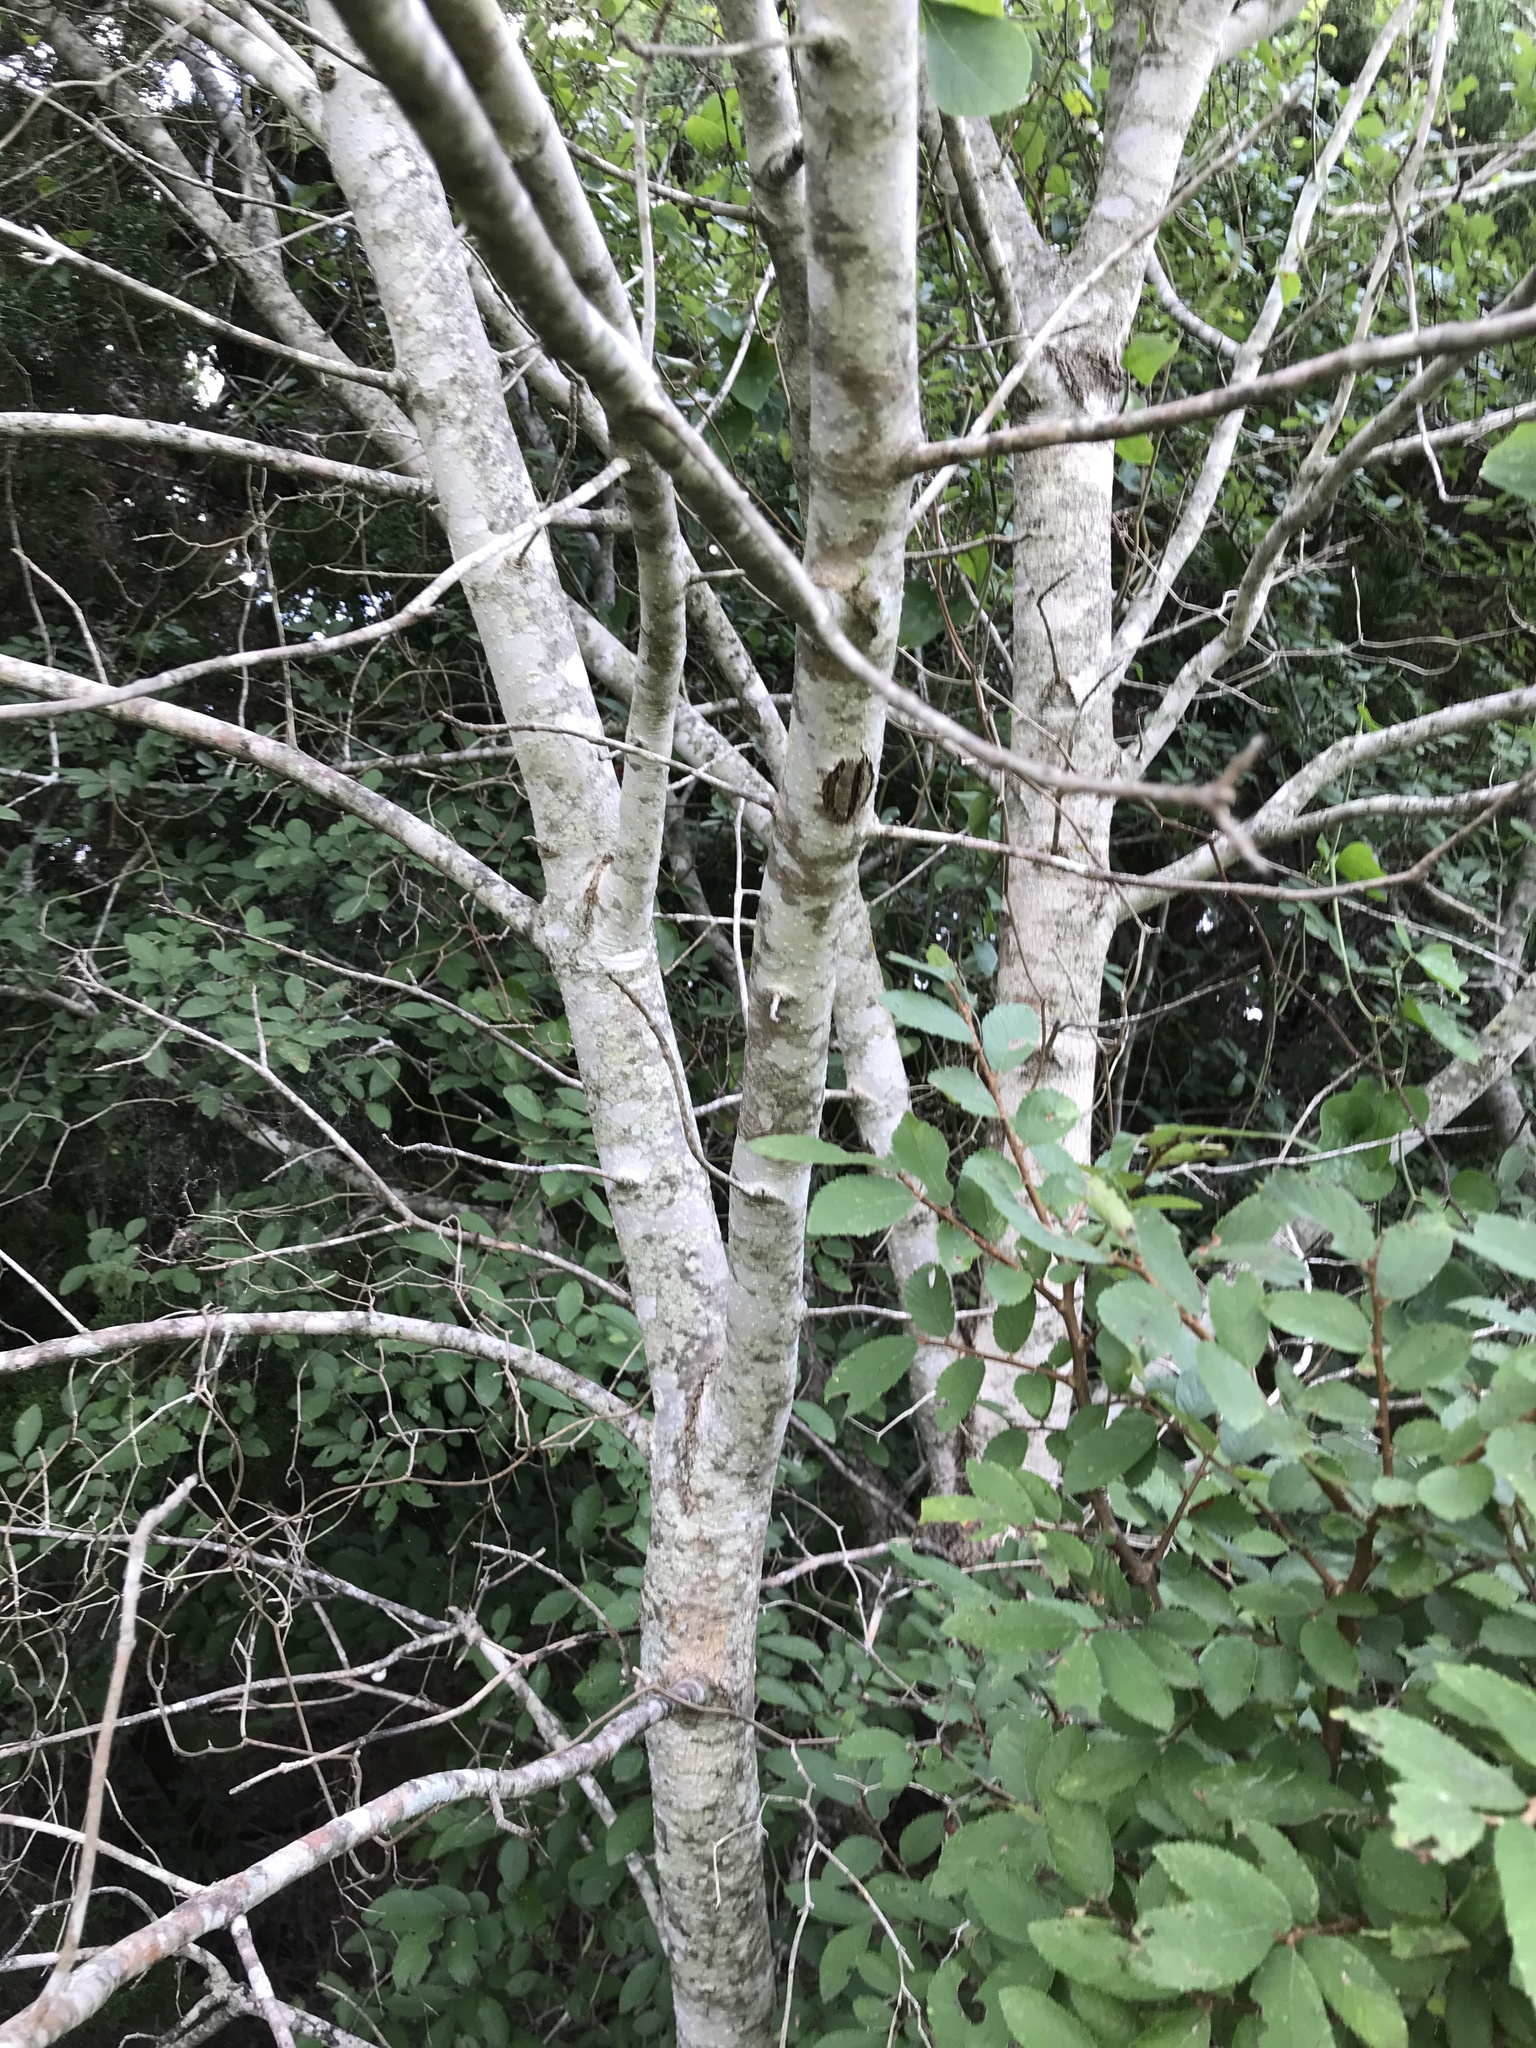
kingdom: Plantae
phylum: Tracheophyta
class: Magnoliopsida
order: Lamiales
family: Oleaceae
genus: Fraxinus
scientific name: Fraxinus albicans
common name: Texas ash
